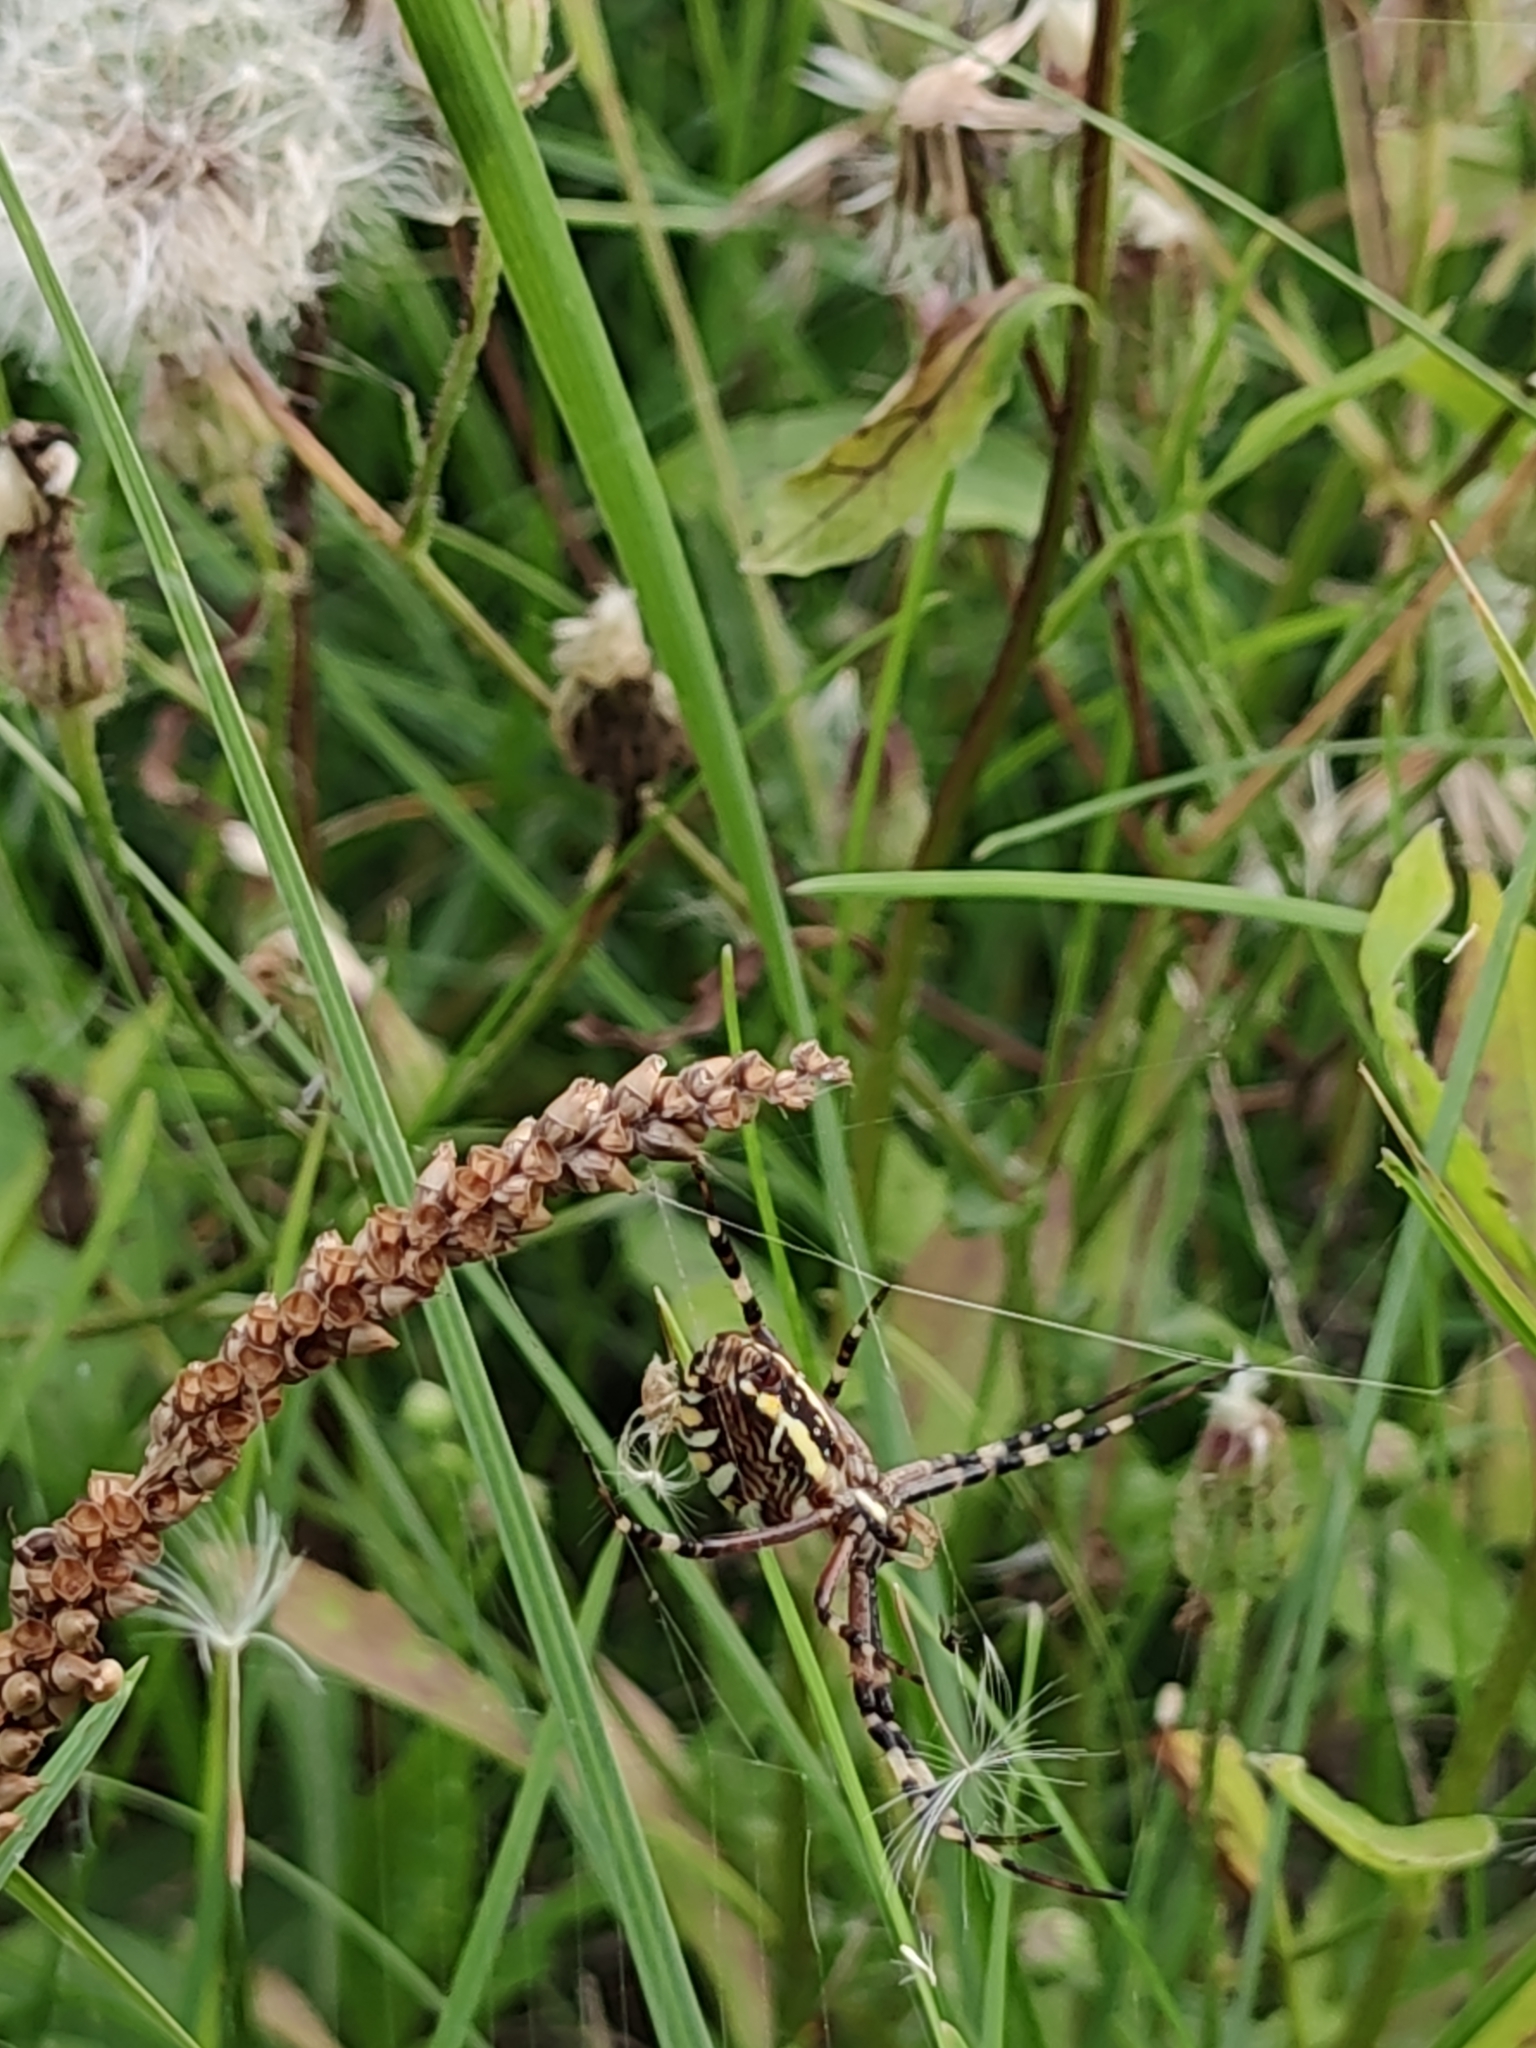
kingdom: Animalia
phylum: Arthropoda
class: Arachnida
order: Araneae
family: Araneidae
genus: Argiope
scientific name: Argiope bruennichi
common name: Wasp spider
